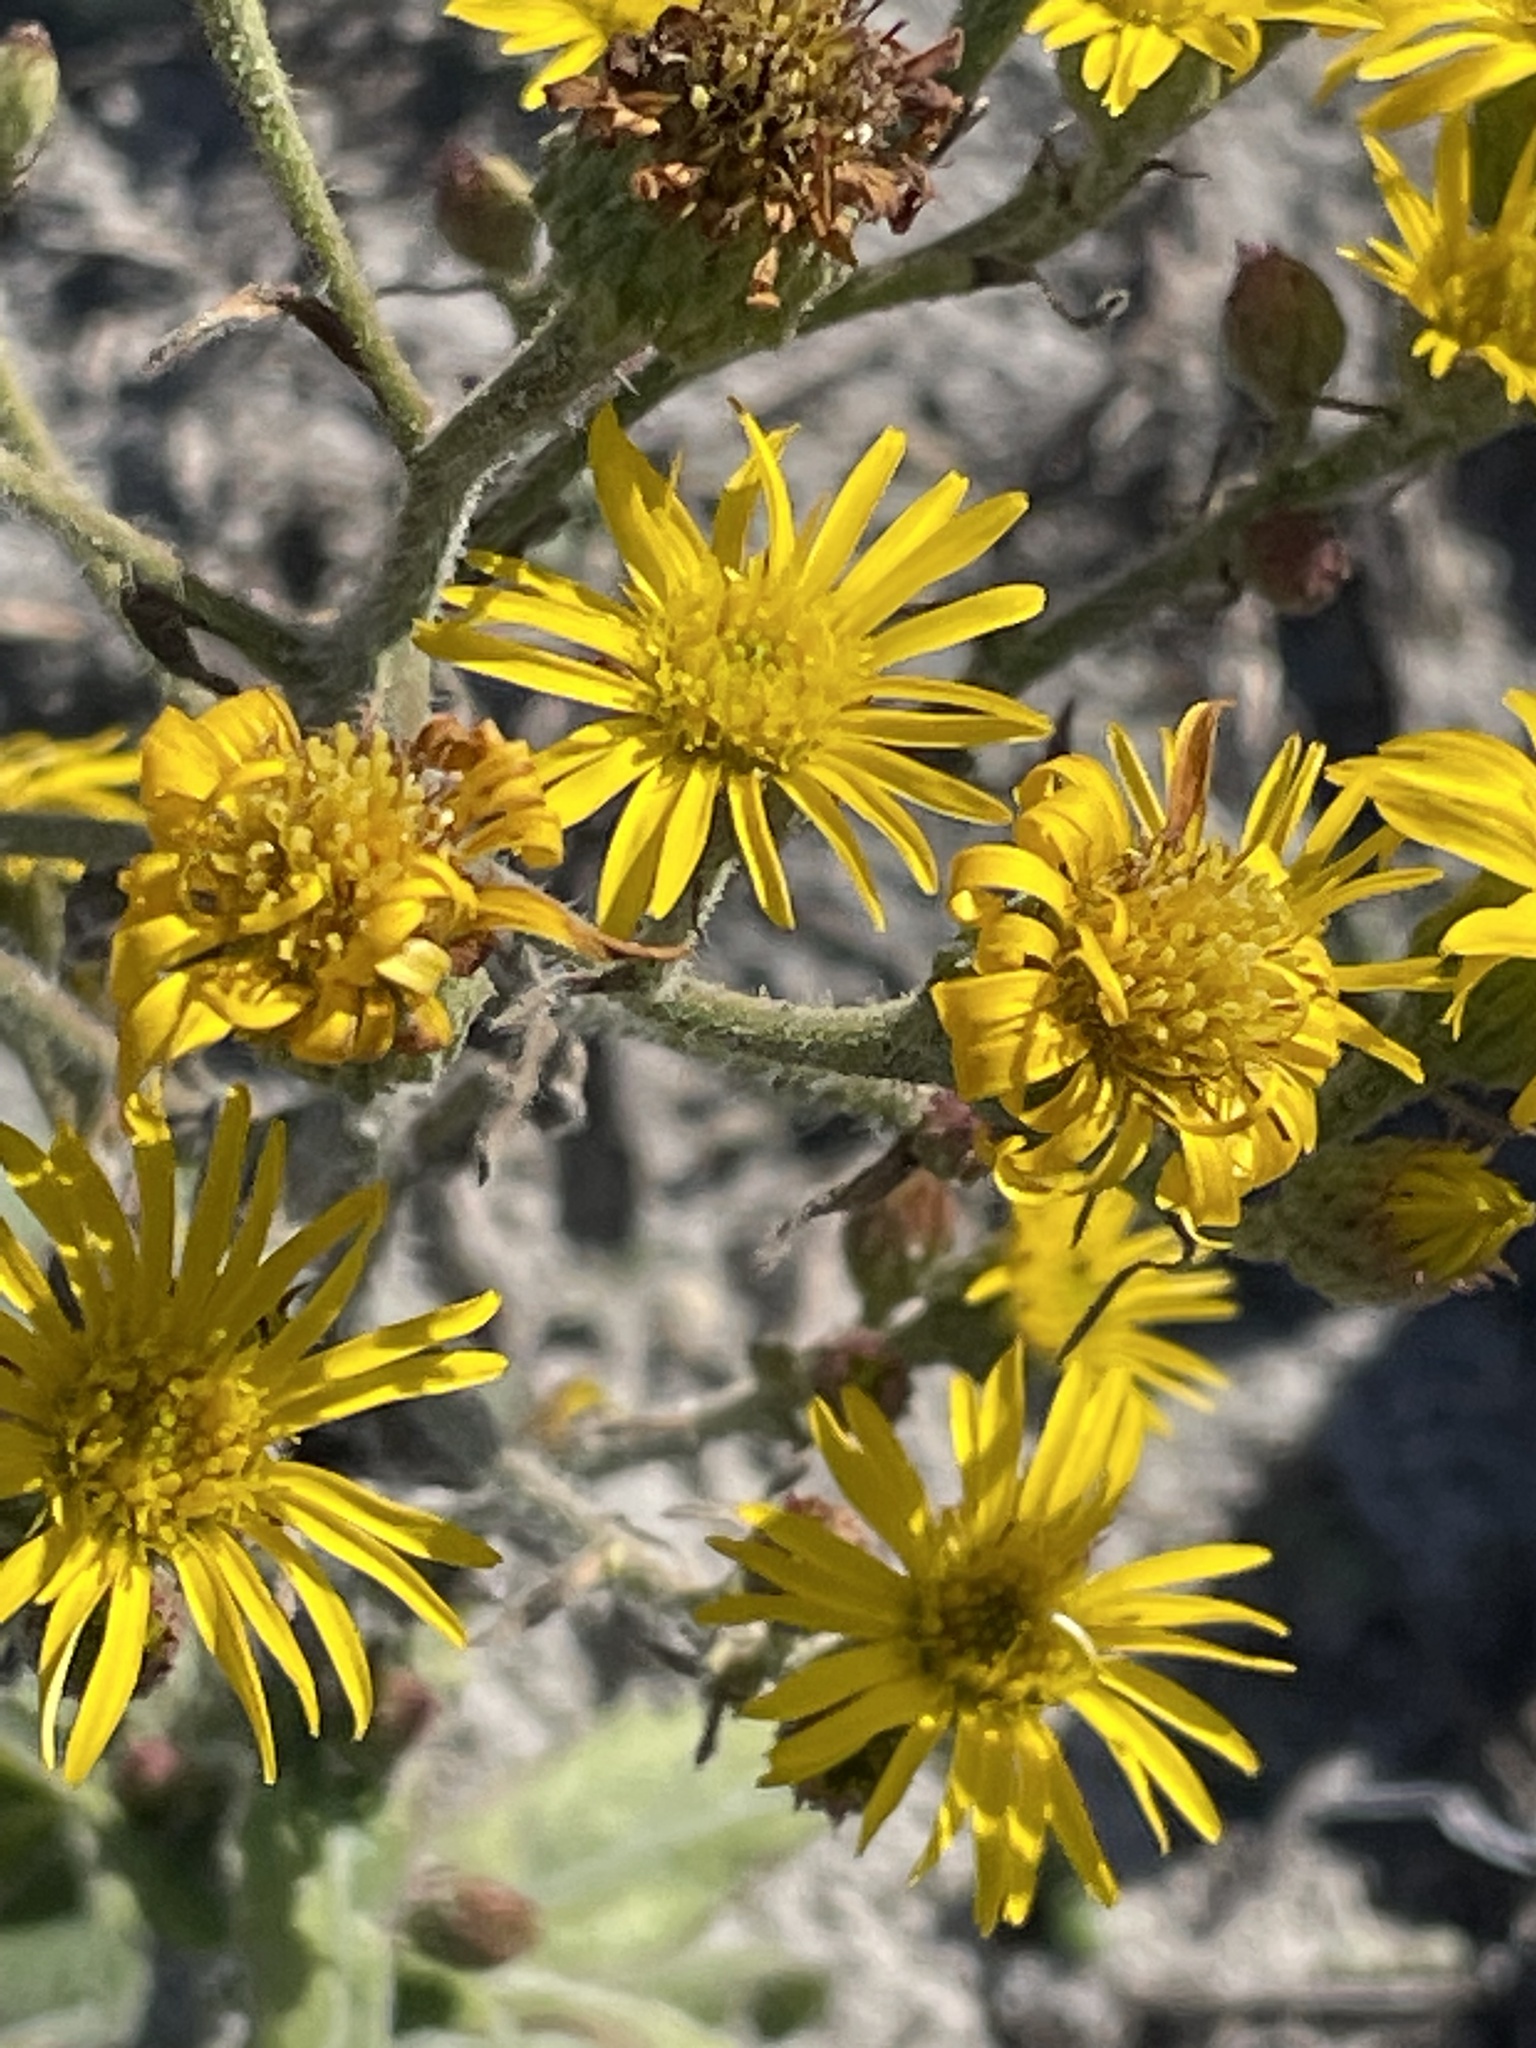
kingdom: Plantae
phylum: Tracheophyta
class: Magnoliopsida
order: Asterales
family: Asteraceae
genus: Heterotheca
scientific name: Heterotheca grandiflora
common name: Telegraphweed
